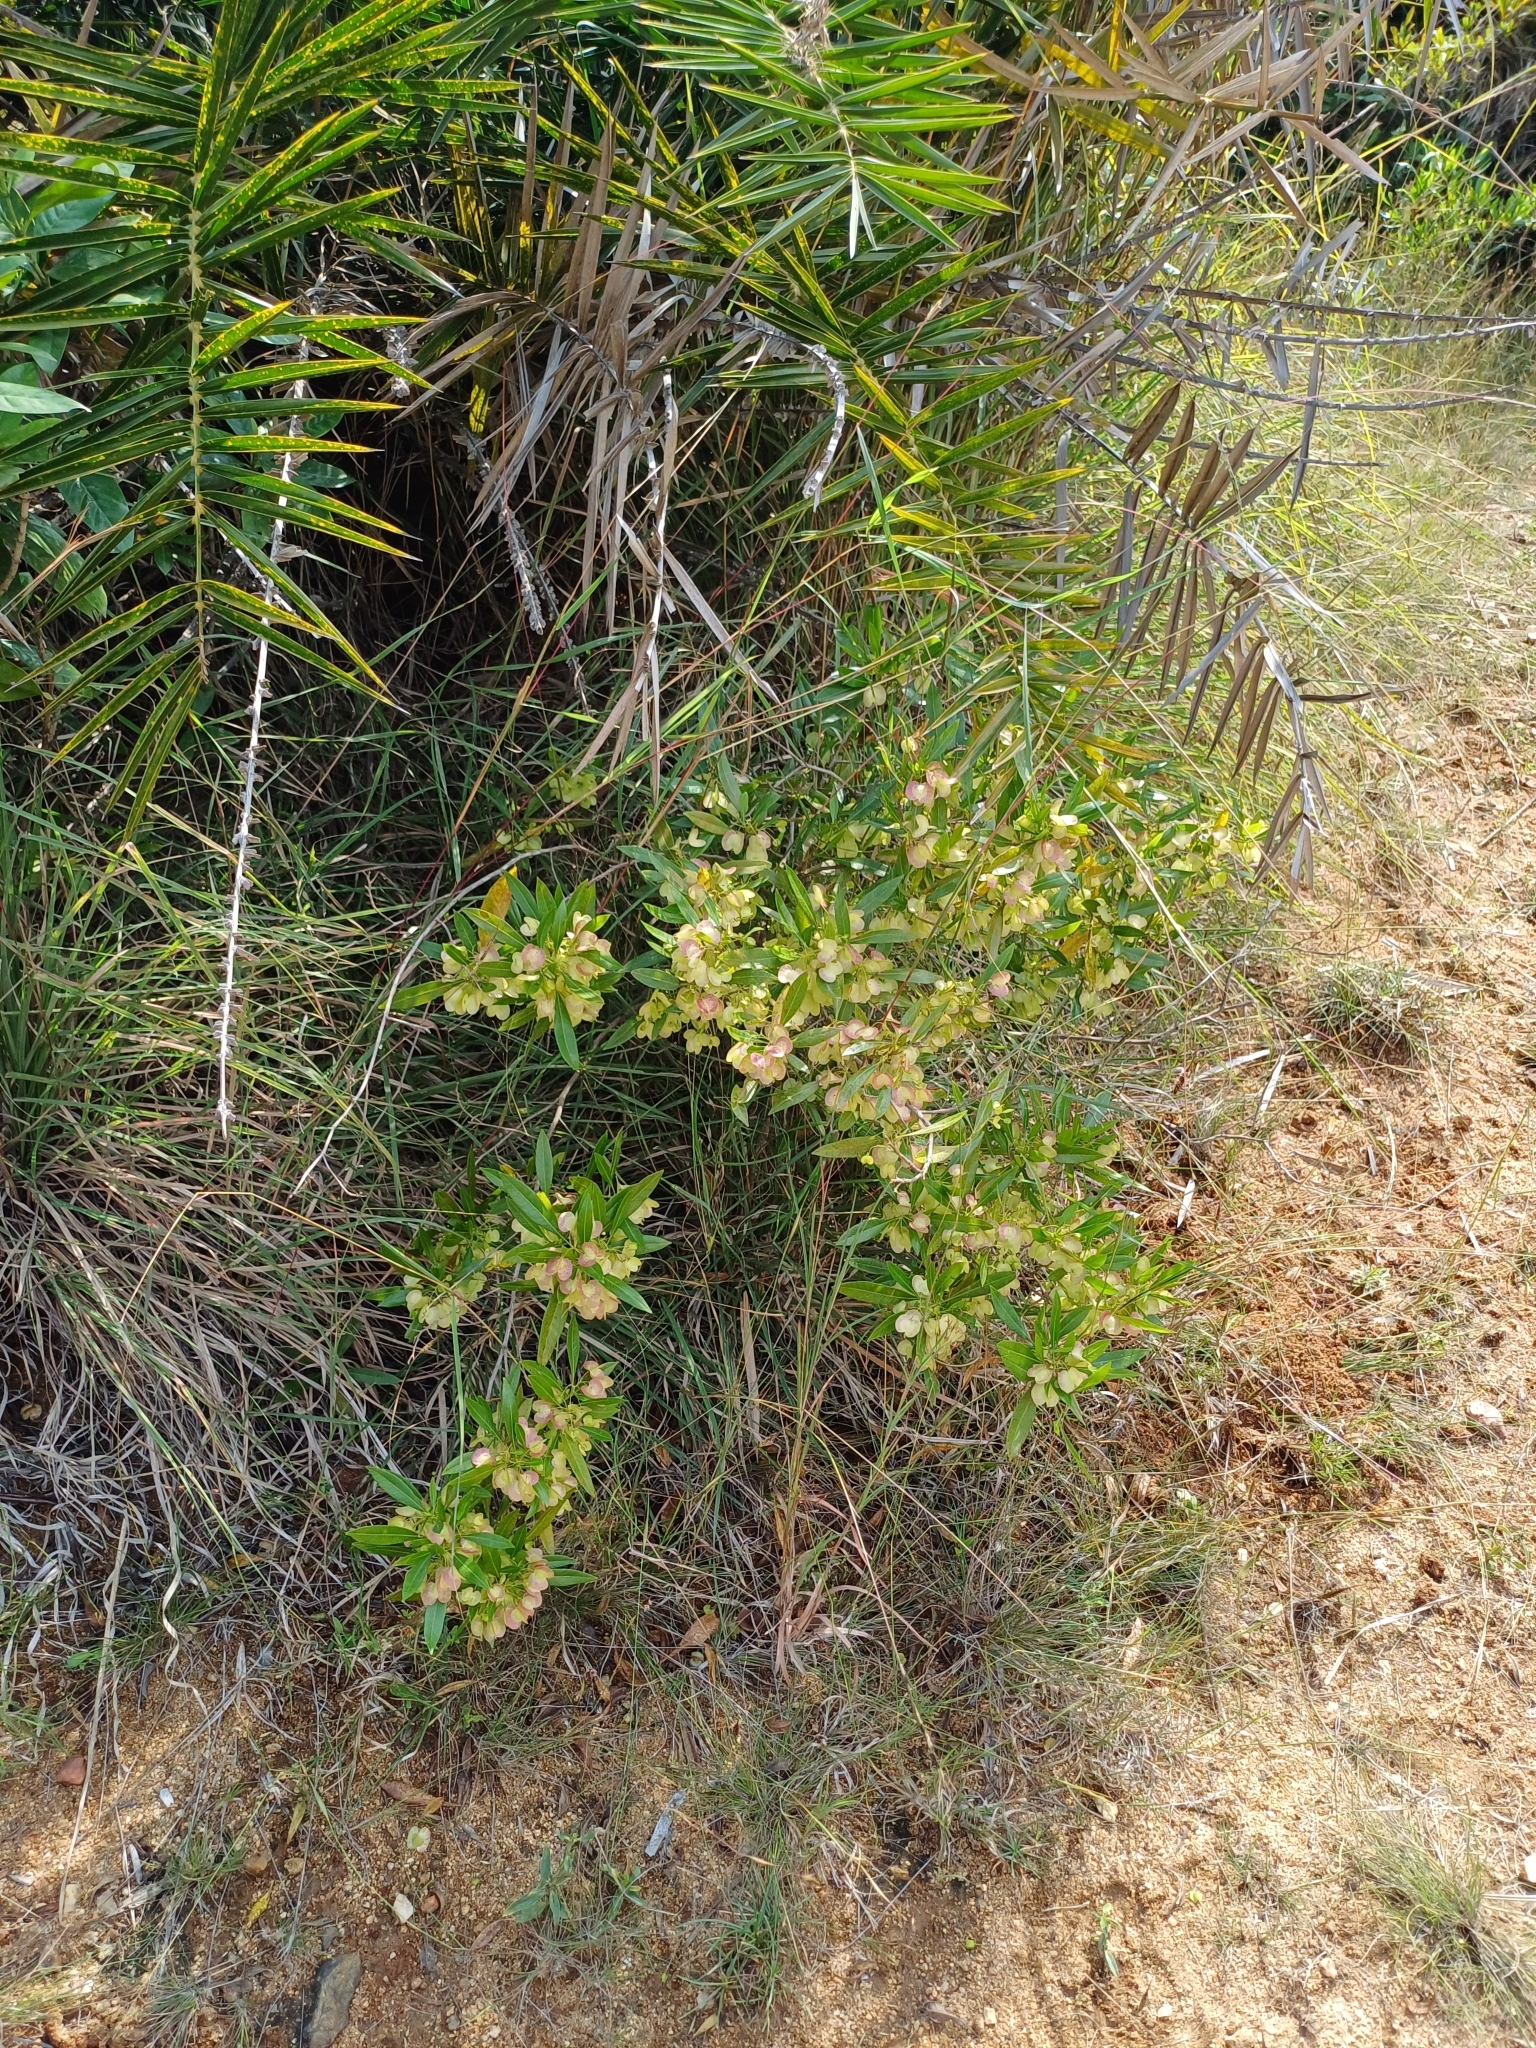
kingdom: Plantae
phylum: Tracheophyta
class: Magnoliopsida
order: Sapindales
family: Sapindaceae
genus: Dodonaea
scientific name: Dodonaea viscosa
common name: Hopbush
